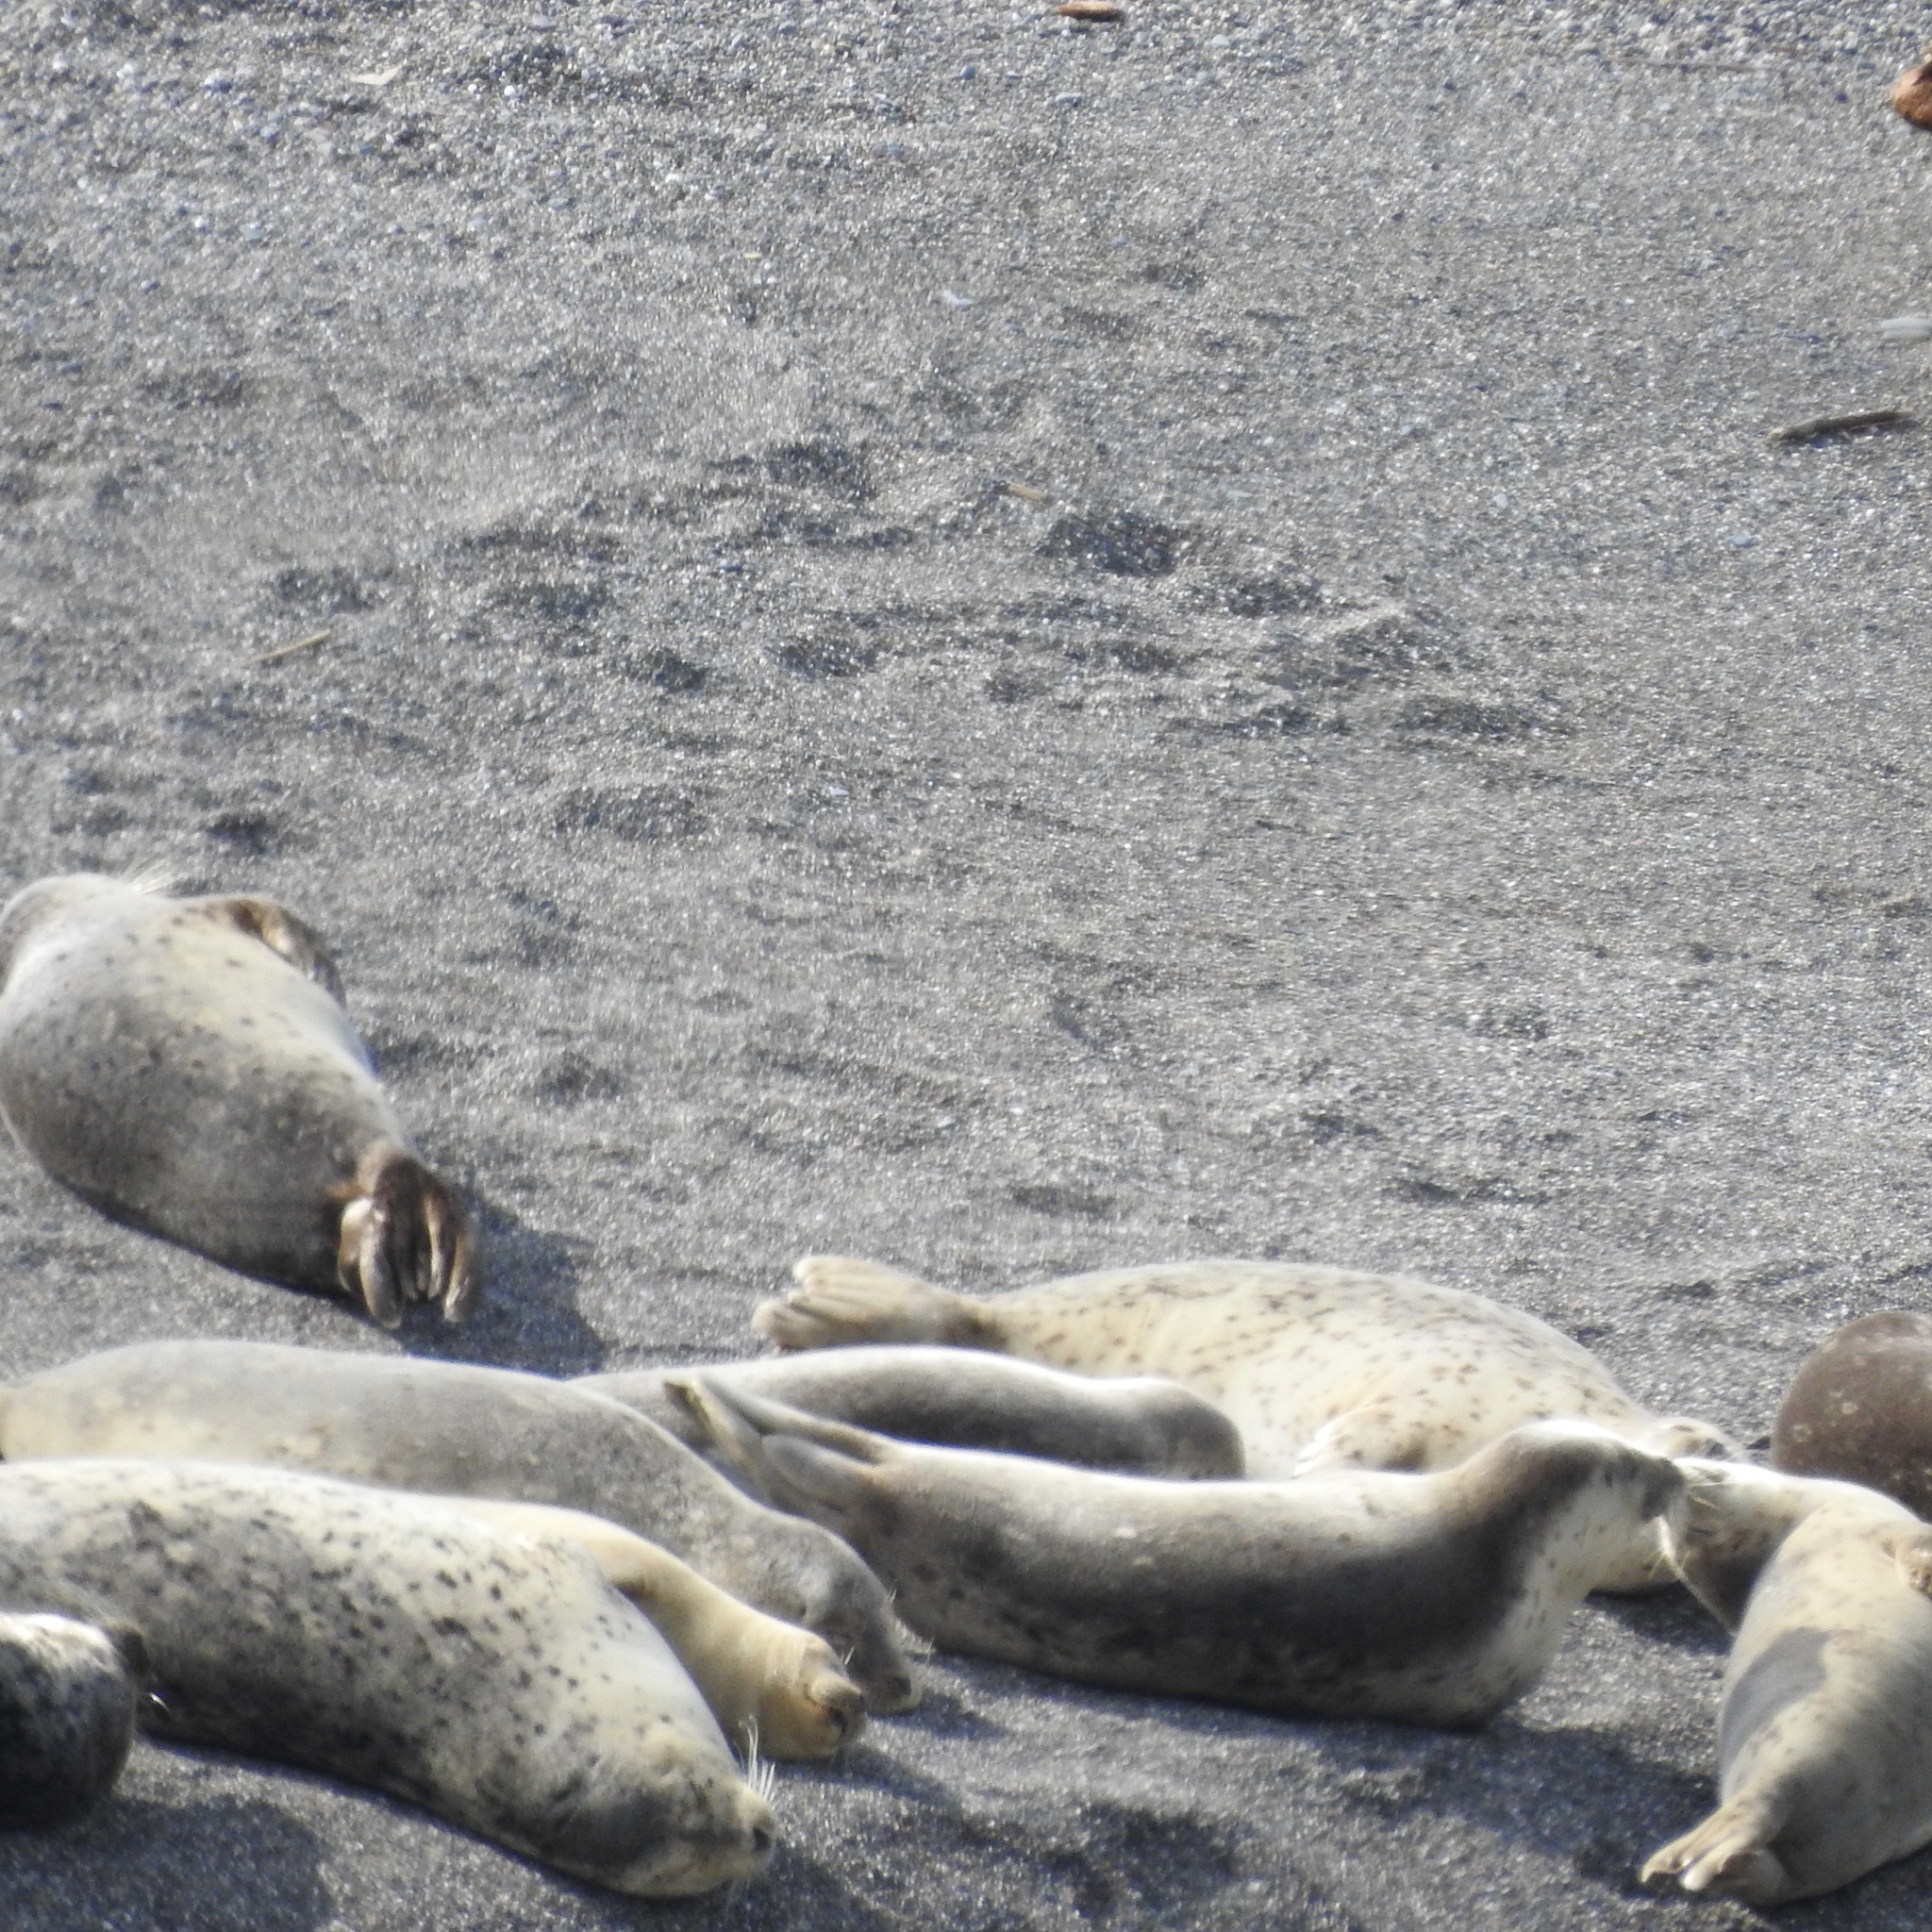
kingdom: Animalia
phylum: Chordata
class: Mammalia
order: Carnivora
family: Phocidae
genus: Phoca
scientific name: Phoca vitulina
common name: Harbor seal
